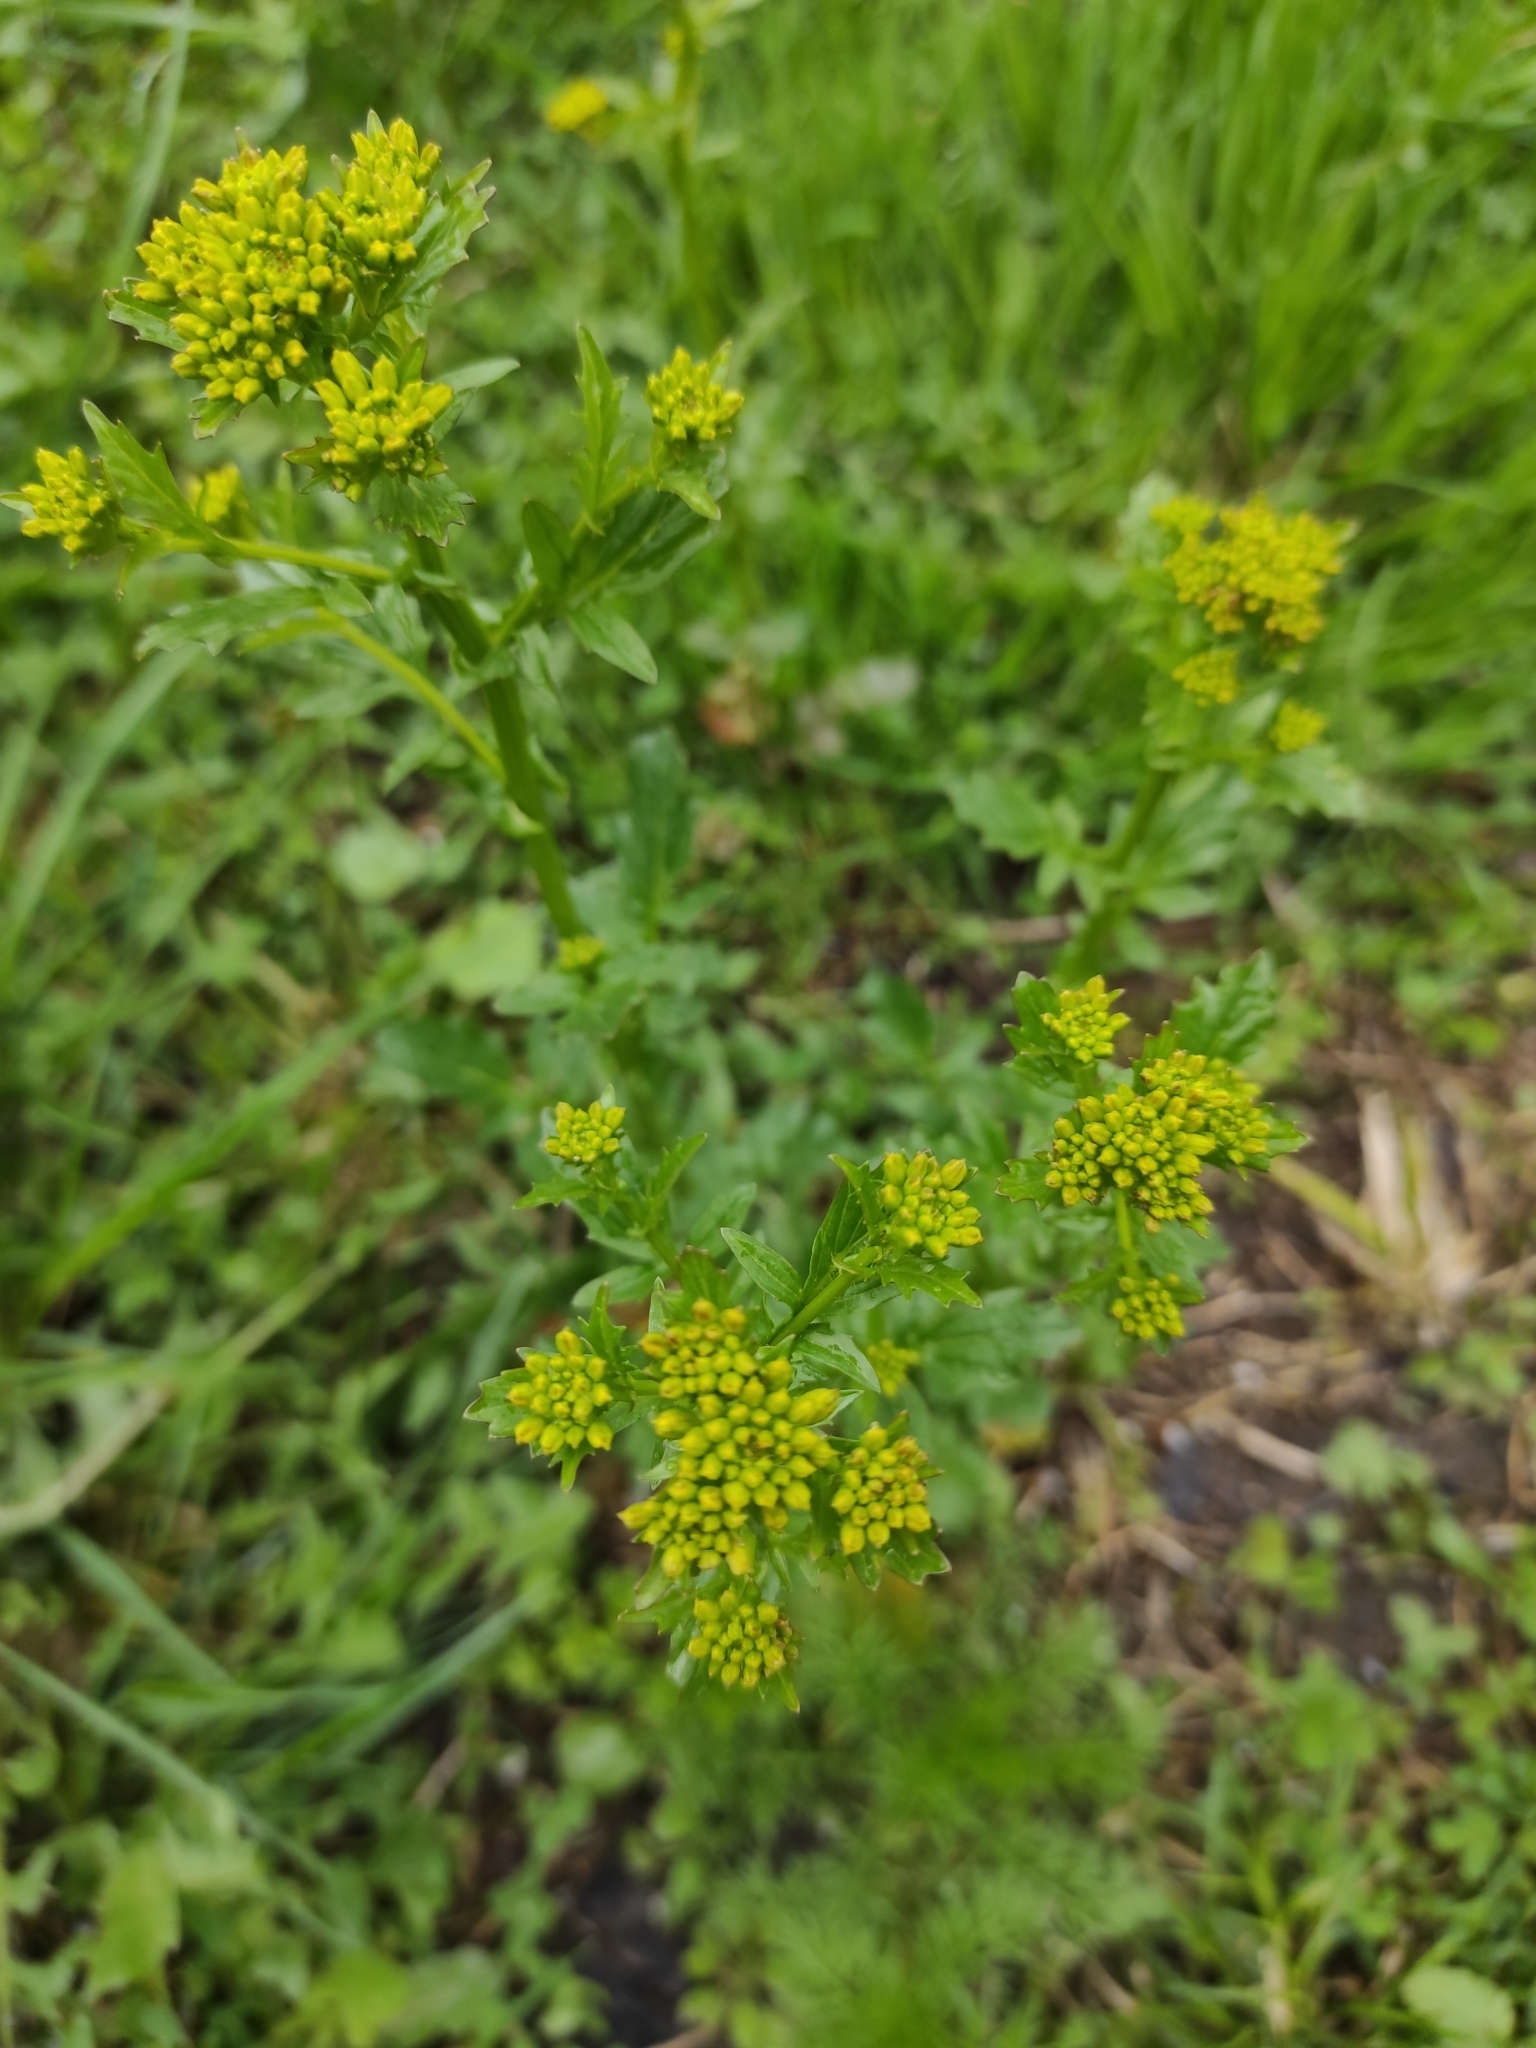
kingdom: Plantae
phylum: Tracheophyta
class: Magnoliopsida
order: Brassicales
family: Brassicaceae
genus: Barbarea
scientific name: Barbarea vulgaris
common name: Cressy-greens
